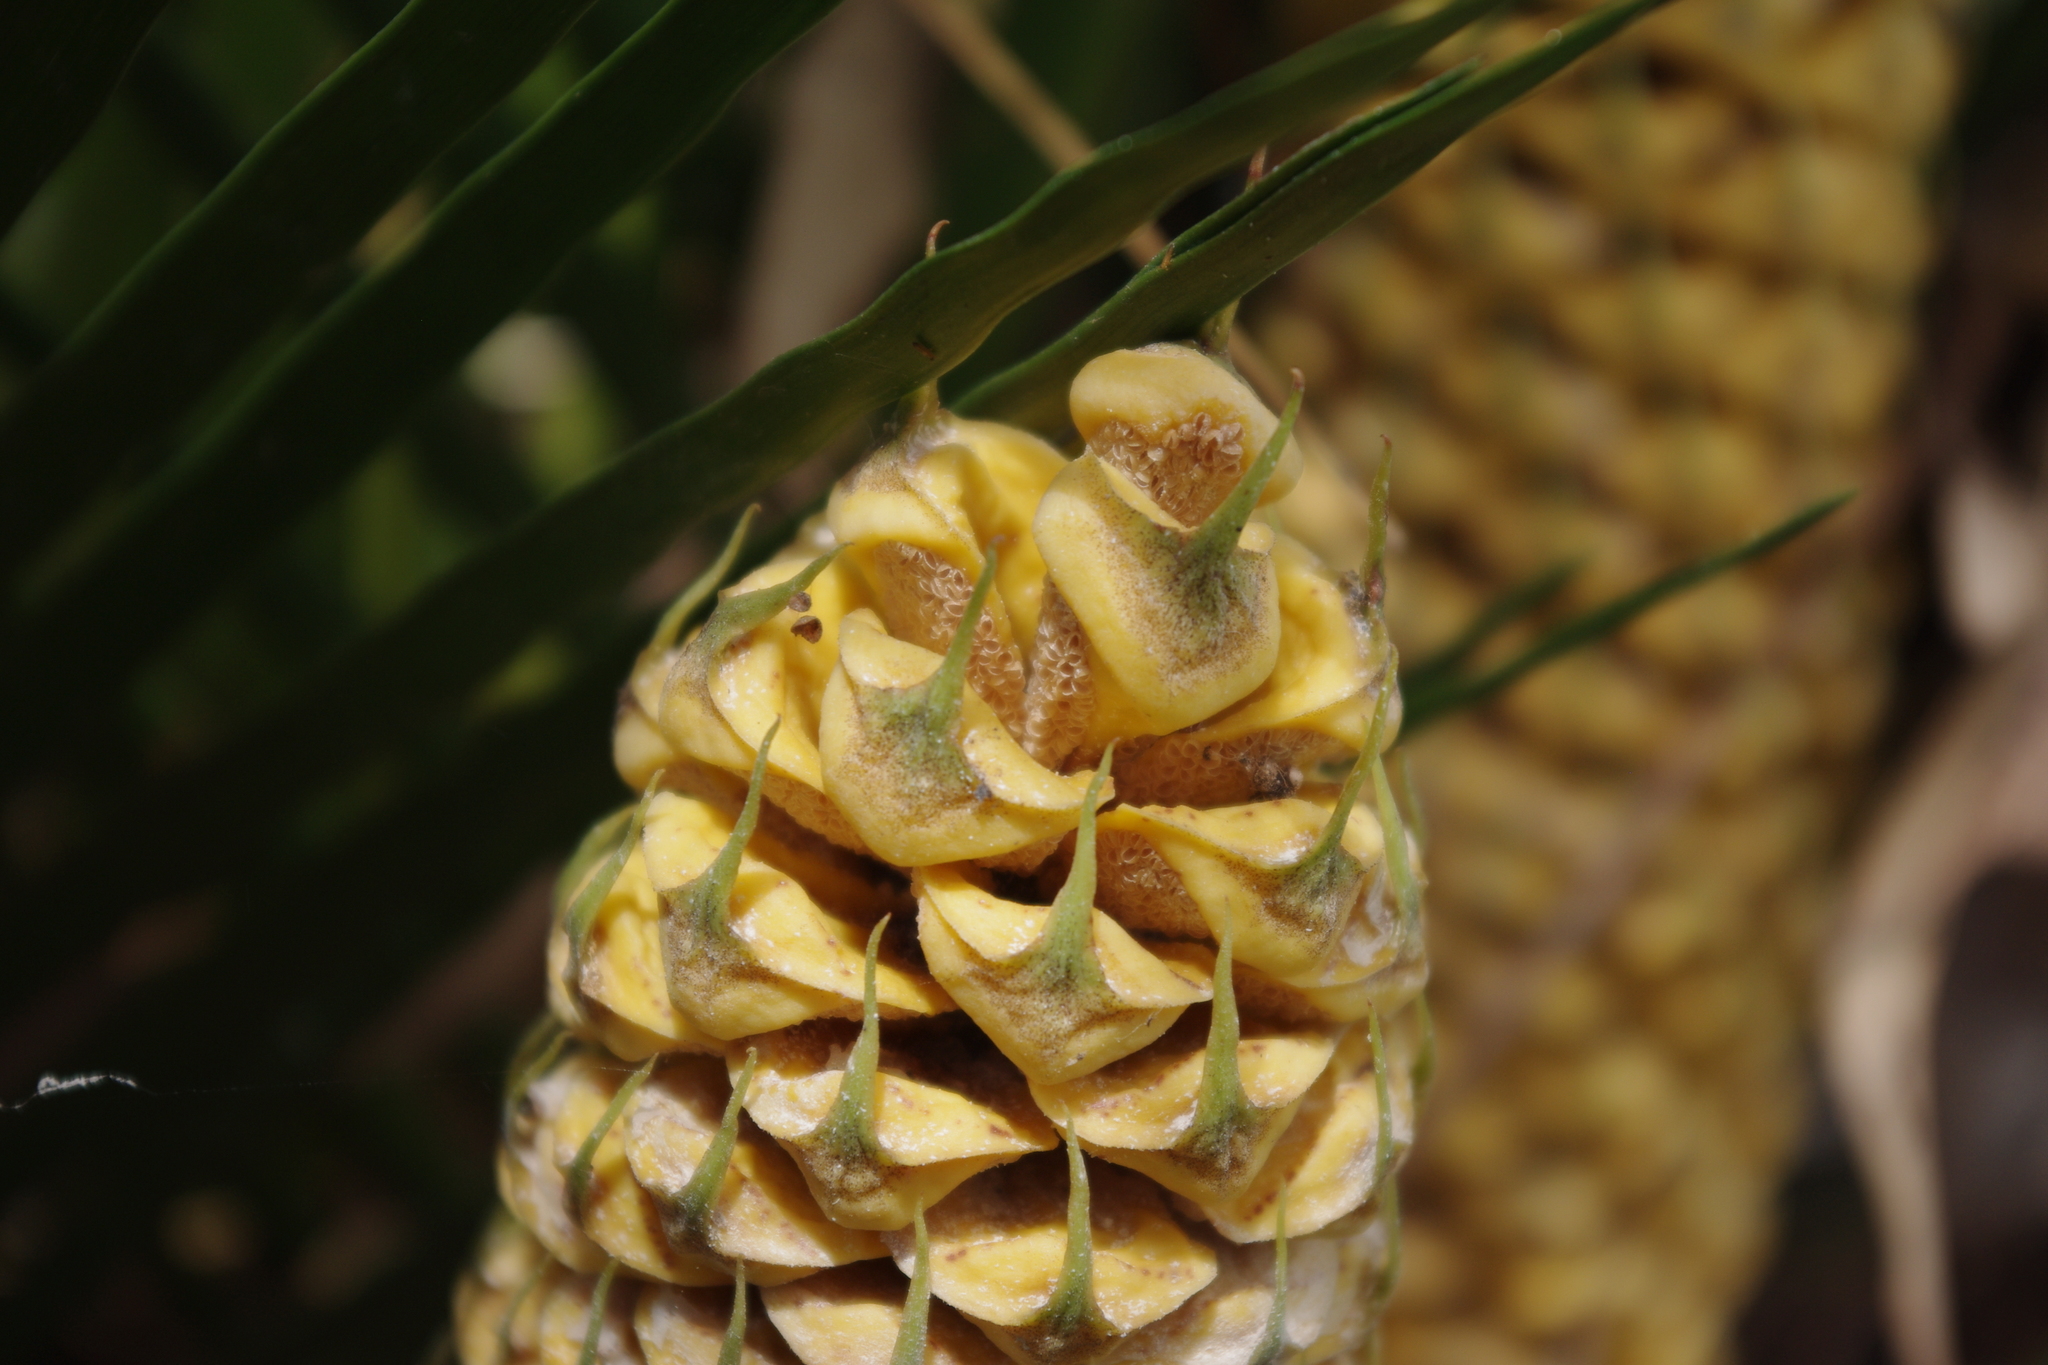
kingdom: Plantae
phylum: Tracheophyta
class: Cycadopsida
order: Cycadales
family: Zamiaceae
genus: Macrozamia
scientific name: Macrozamia miquelii
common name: Wild pineapple
